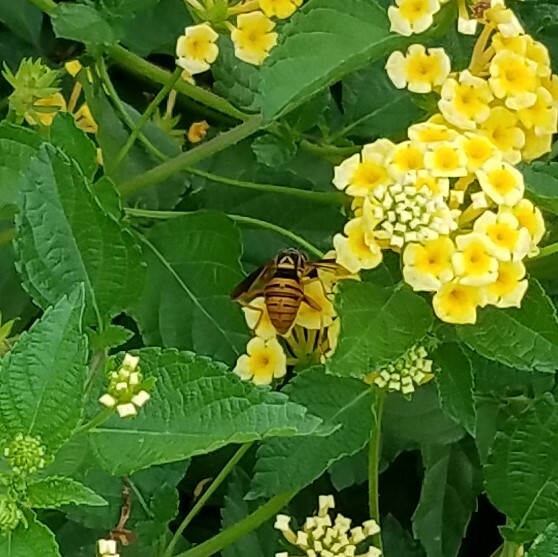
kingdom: Animalia
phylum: Arthropoda
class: Insecta
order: Diptera
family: Syrphidae
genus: Spilomyia
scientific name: Spilomyia alcimus
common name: Broad-banded hornet fly
